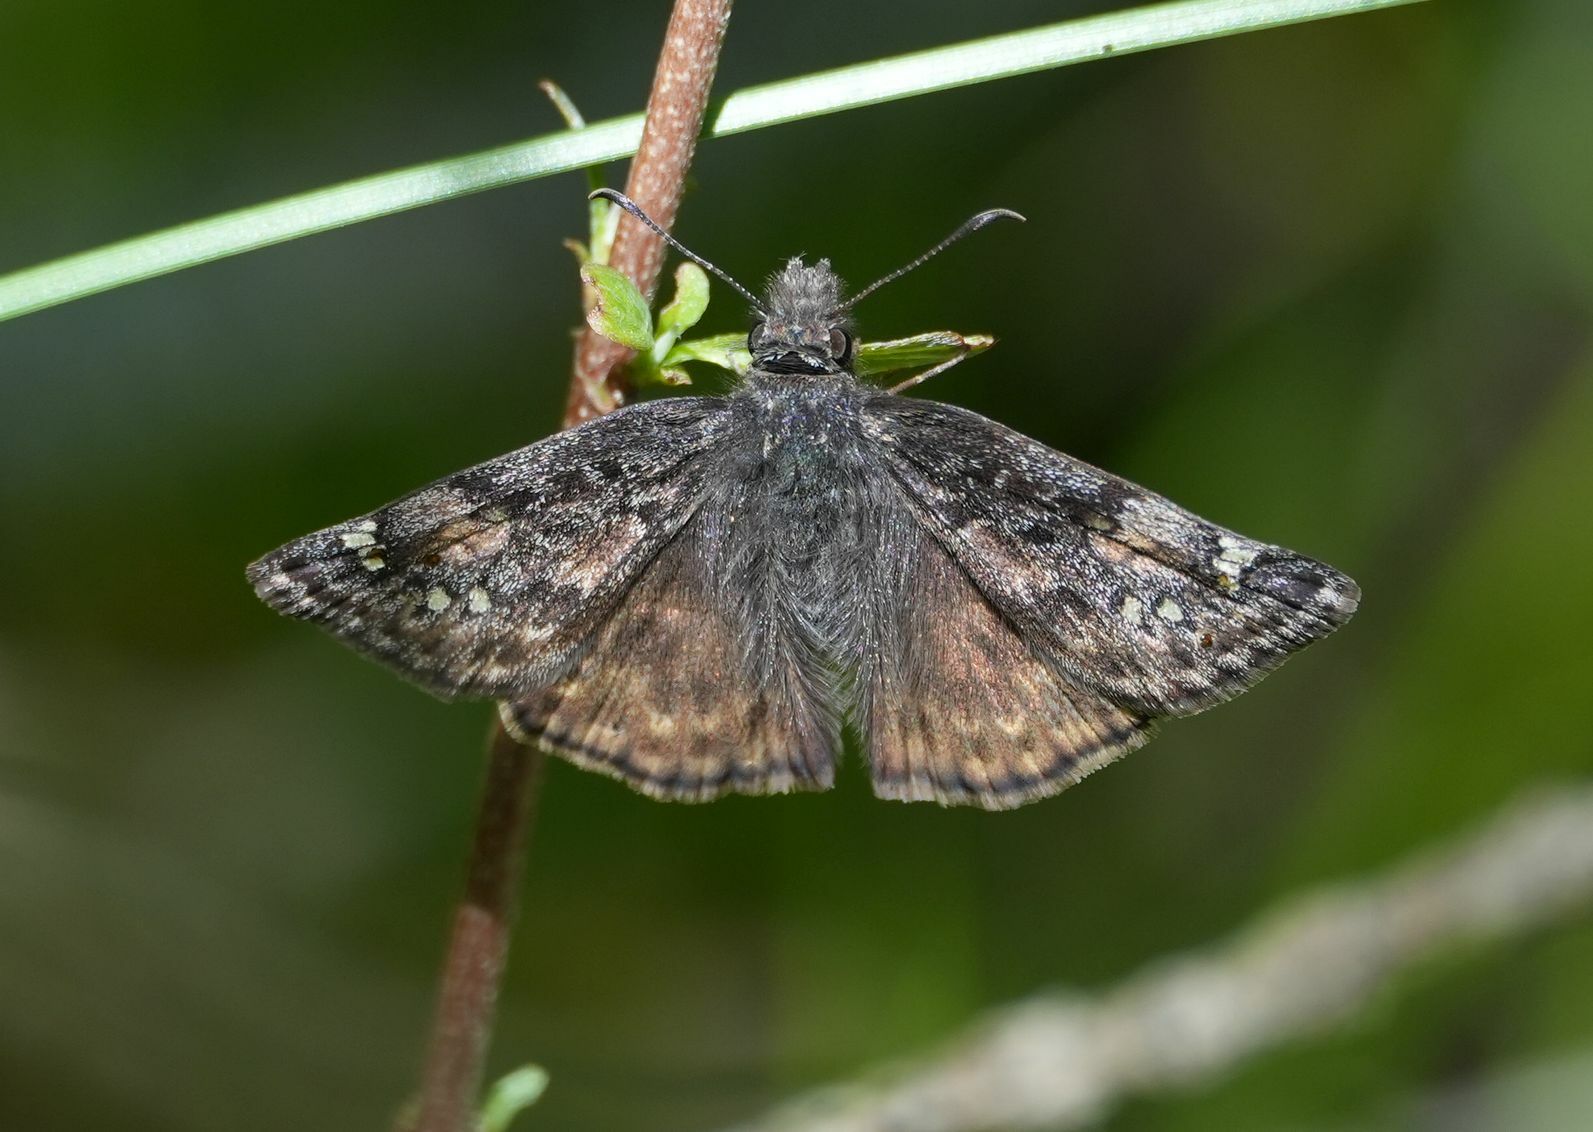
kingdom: Animalia
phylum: Arthropoda
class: Insecta
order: Lepidoptera
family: Hesperiidae
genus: Erynnis
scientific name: Erynnis juvenalis
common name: Juvenal's duskywing
